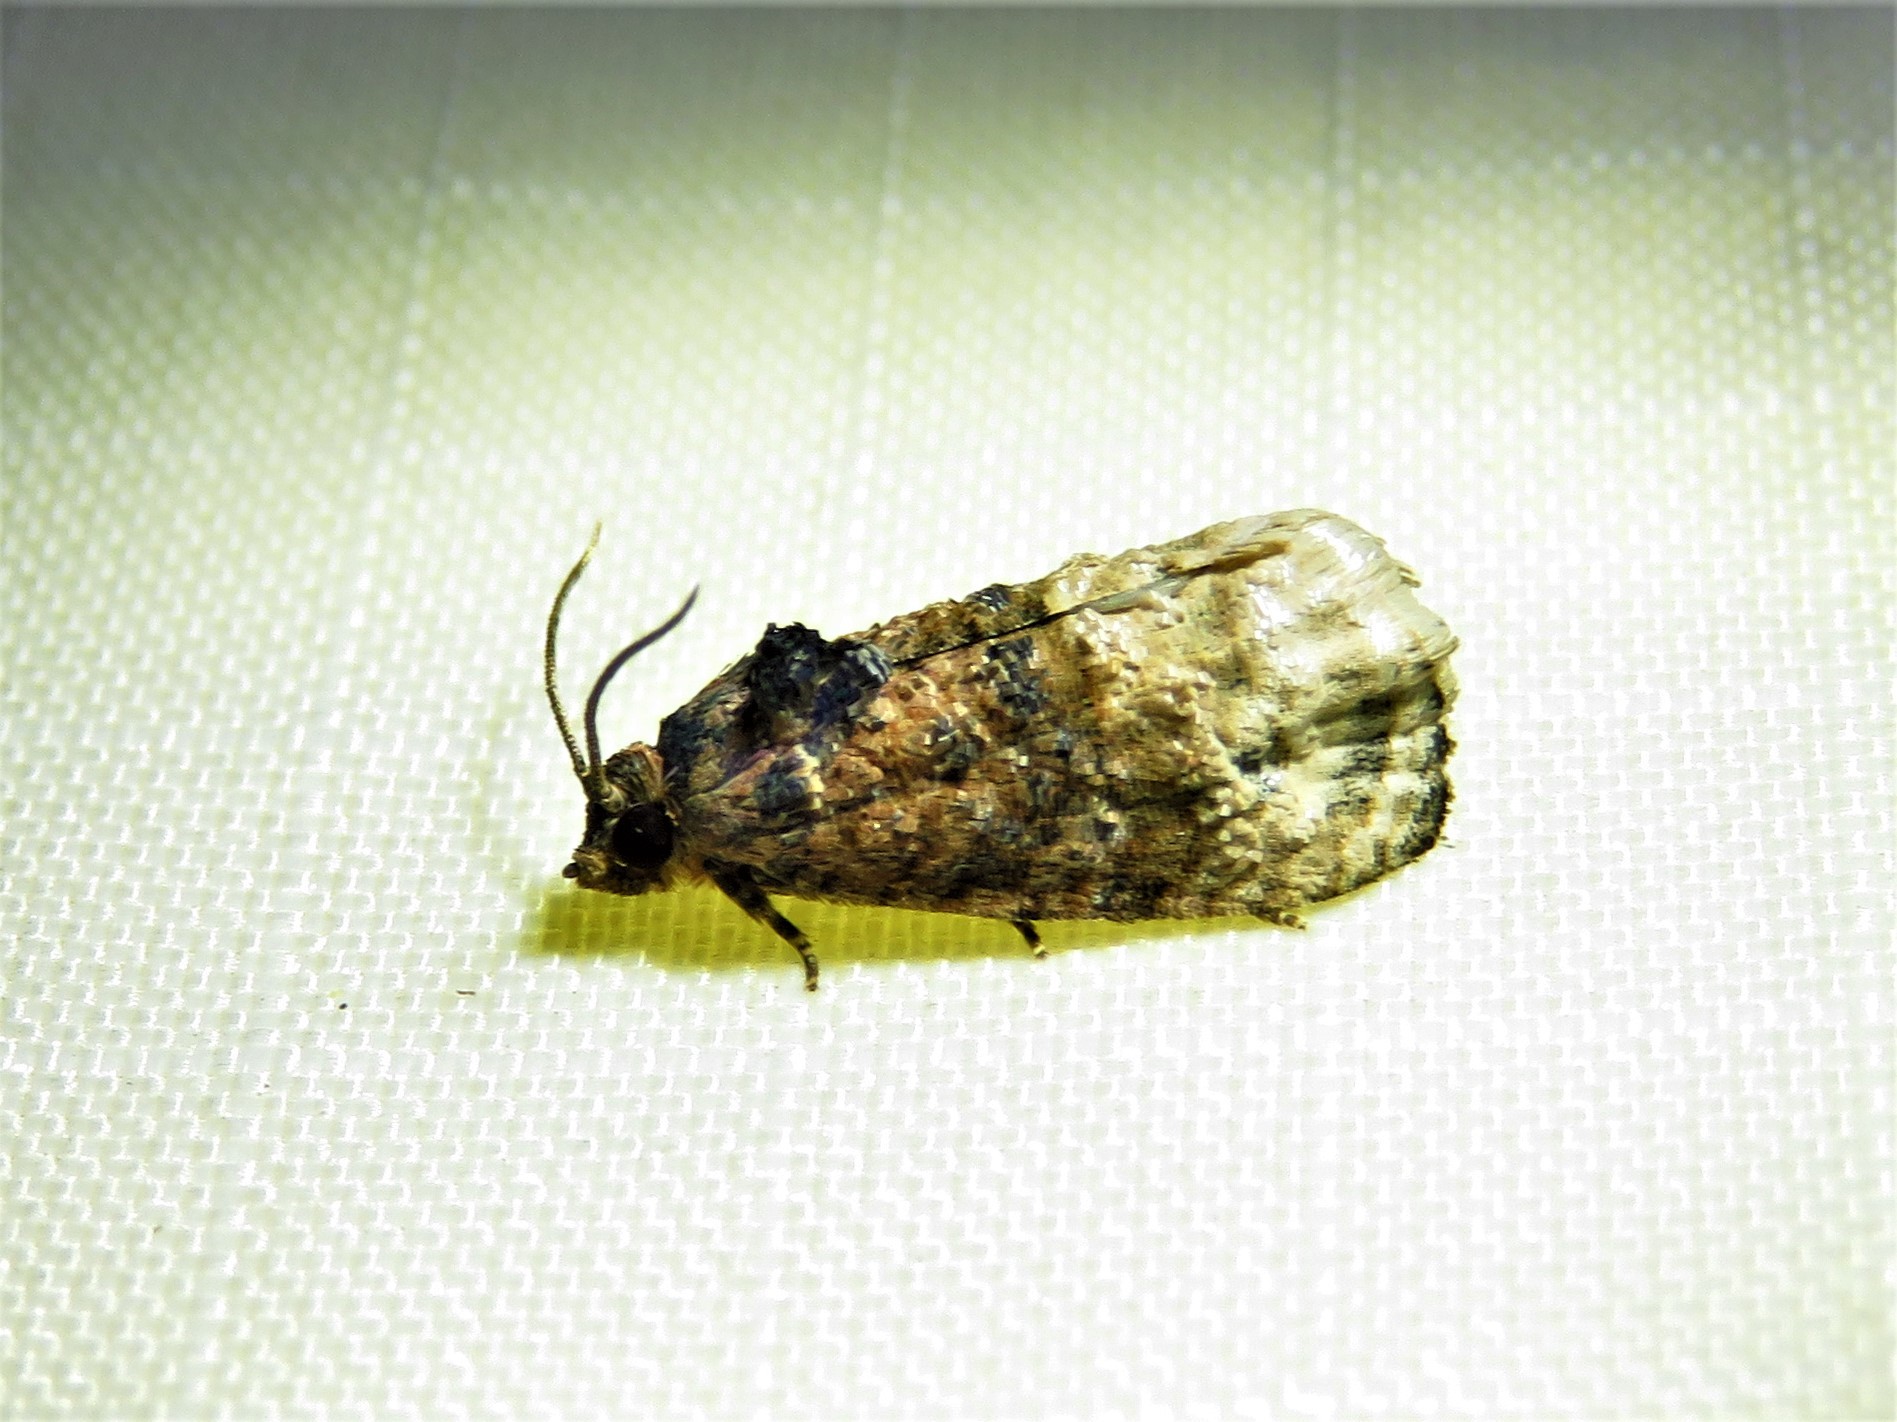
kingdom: Animalia
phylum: Arthropoda
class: Insecta
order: Lepidoptera
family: Tortricidae
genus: Ecdytolopha
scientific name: Ecdytolopha mana
